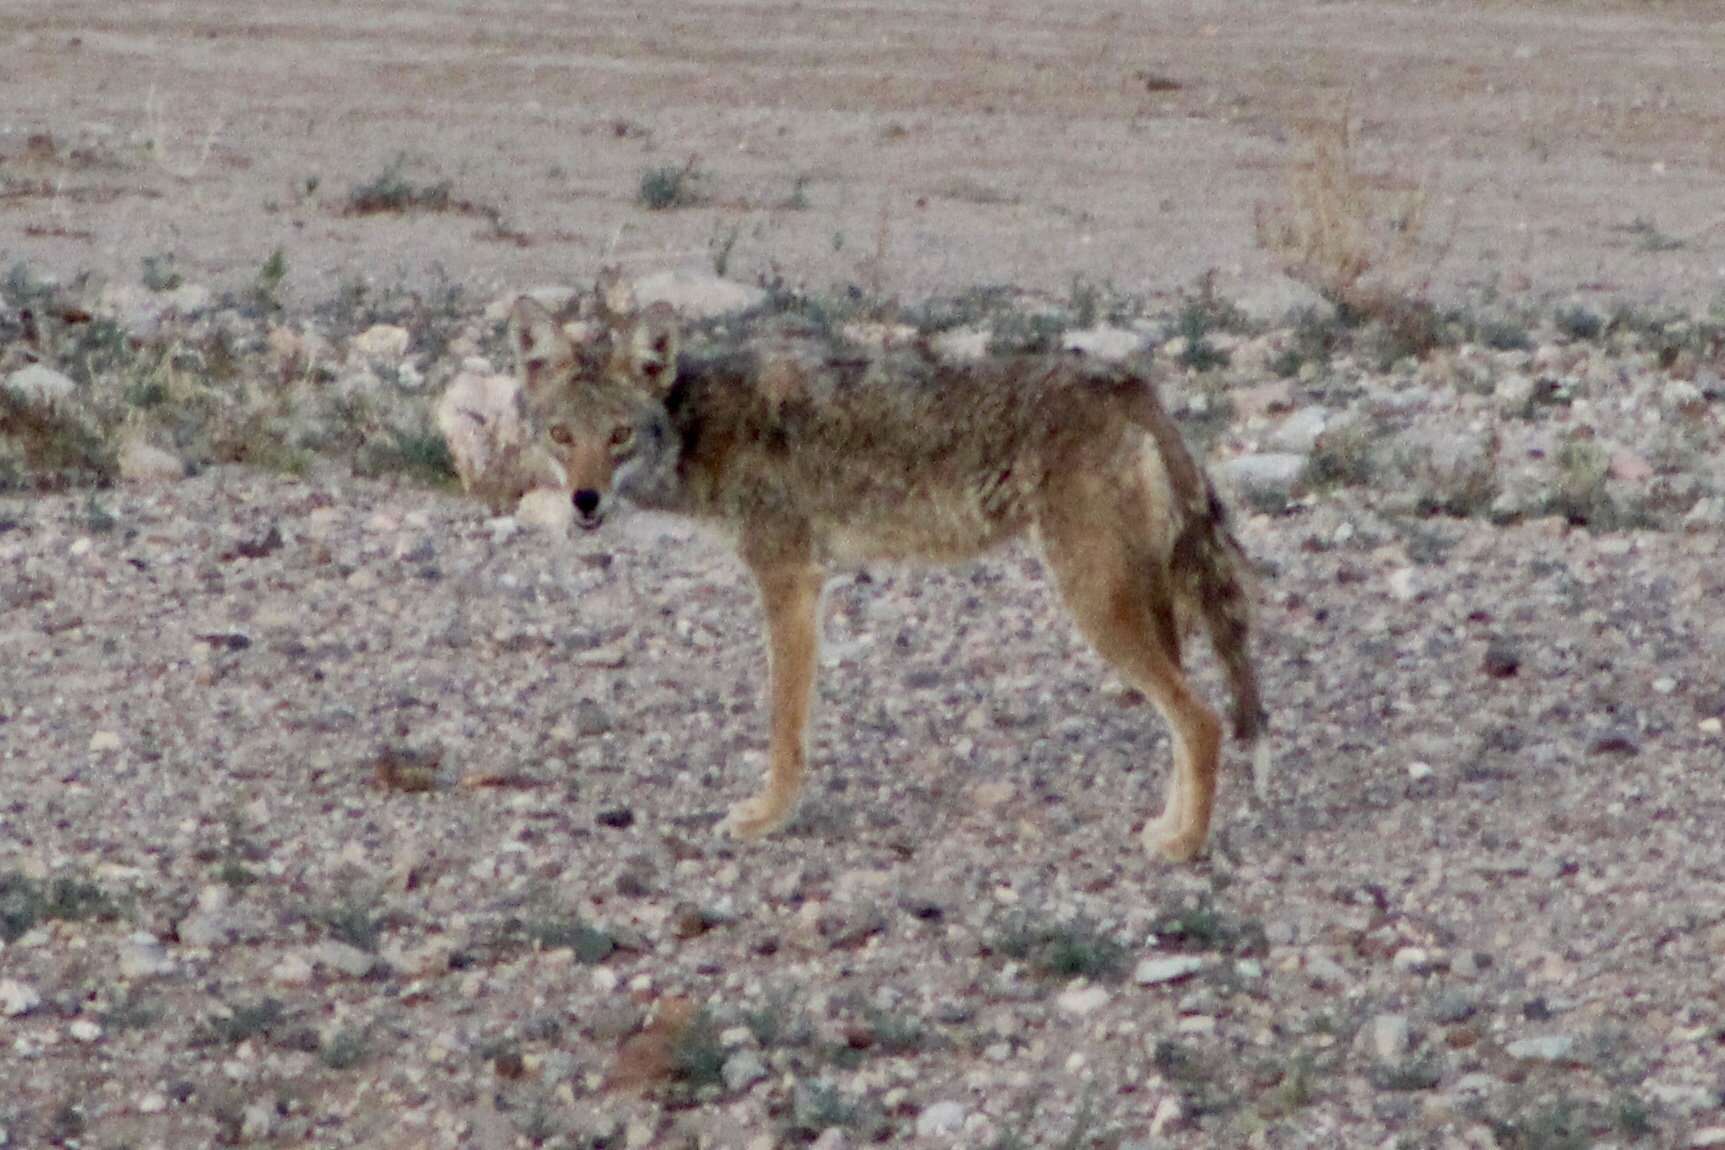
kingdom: Animalia
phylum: Chordata
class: Mammalia
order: Carnivora
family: Canidae
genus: Canis
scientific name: Canis latrans
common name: Coyote
